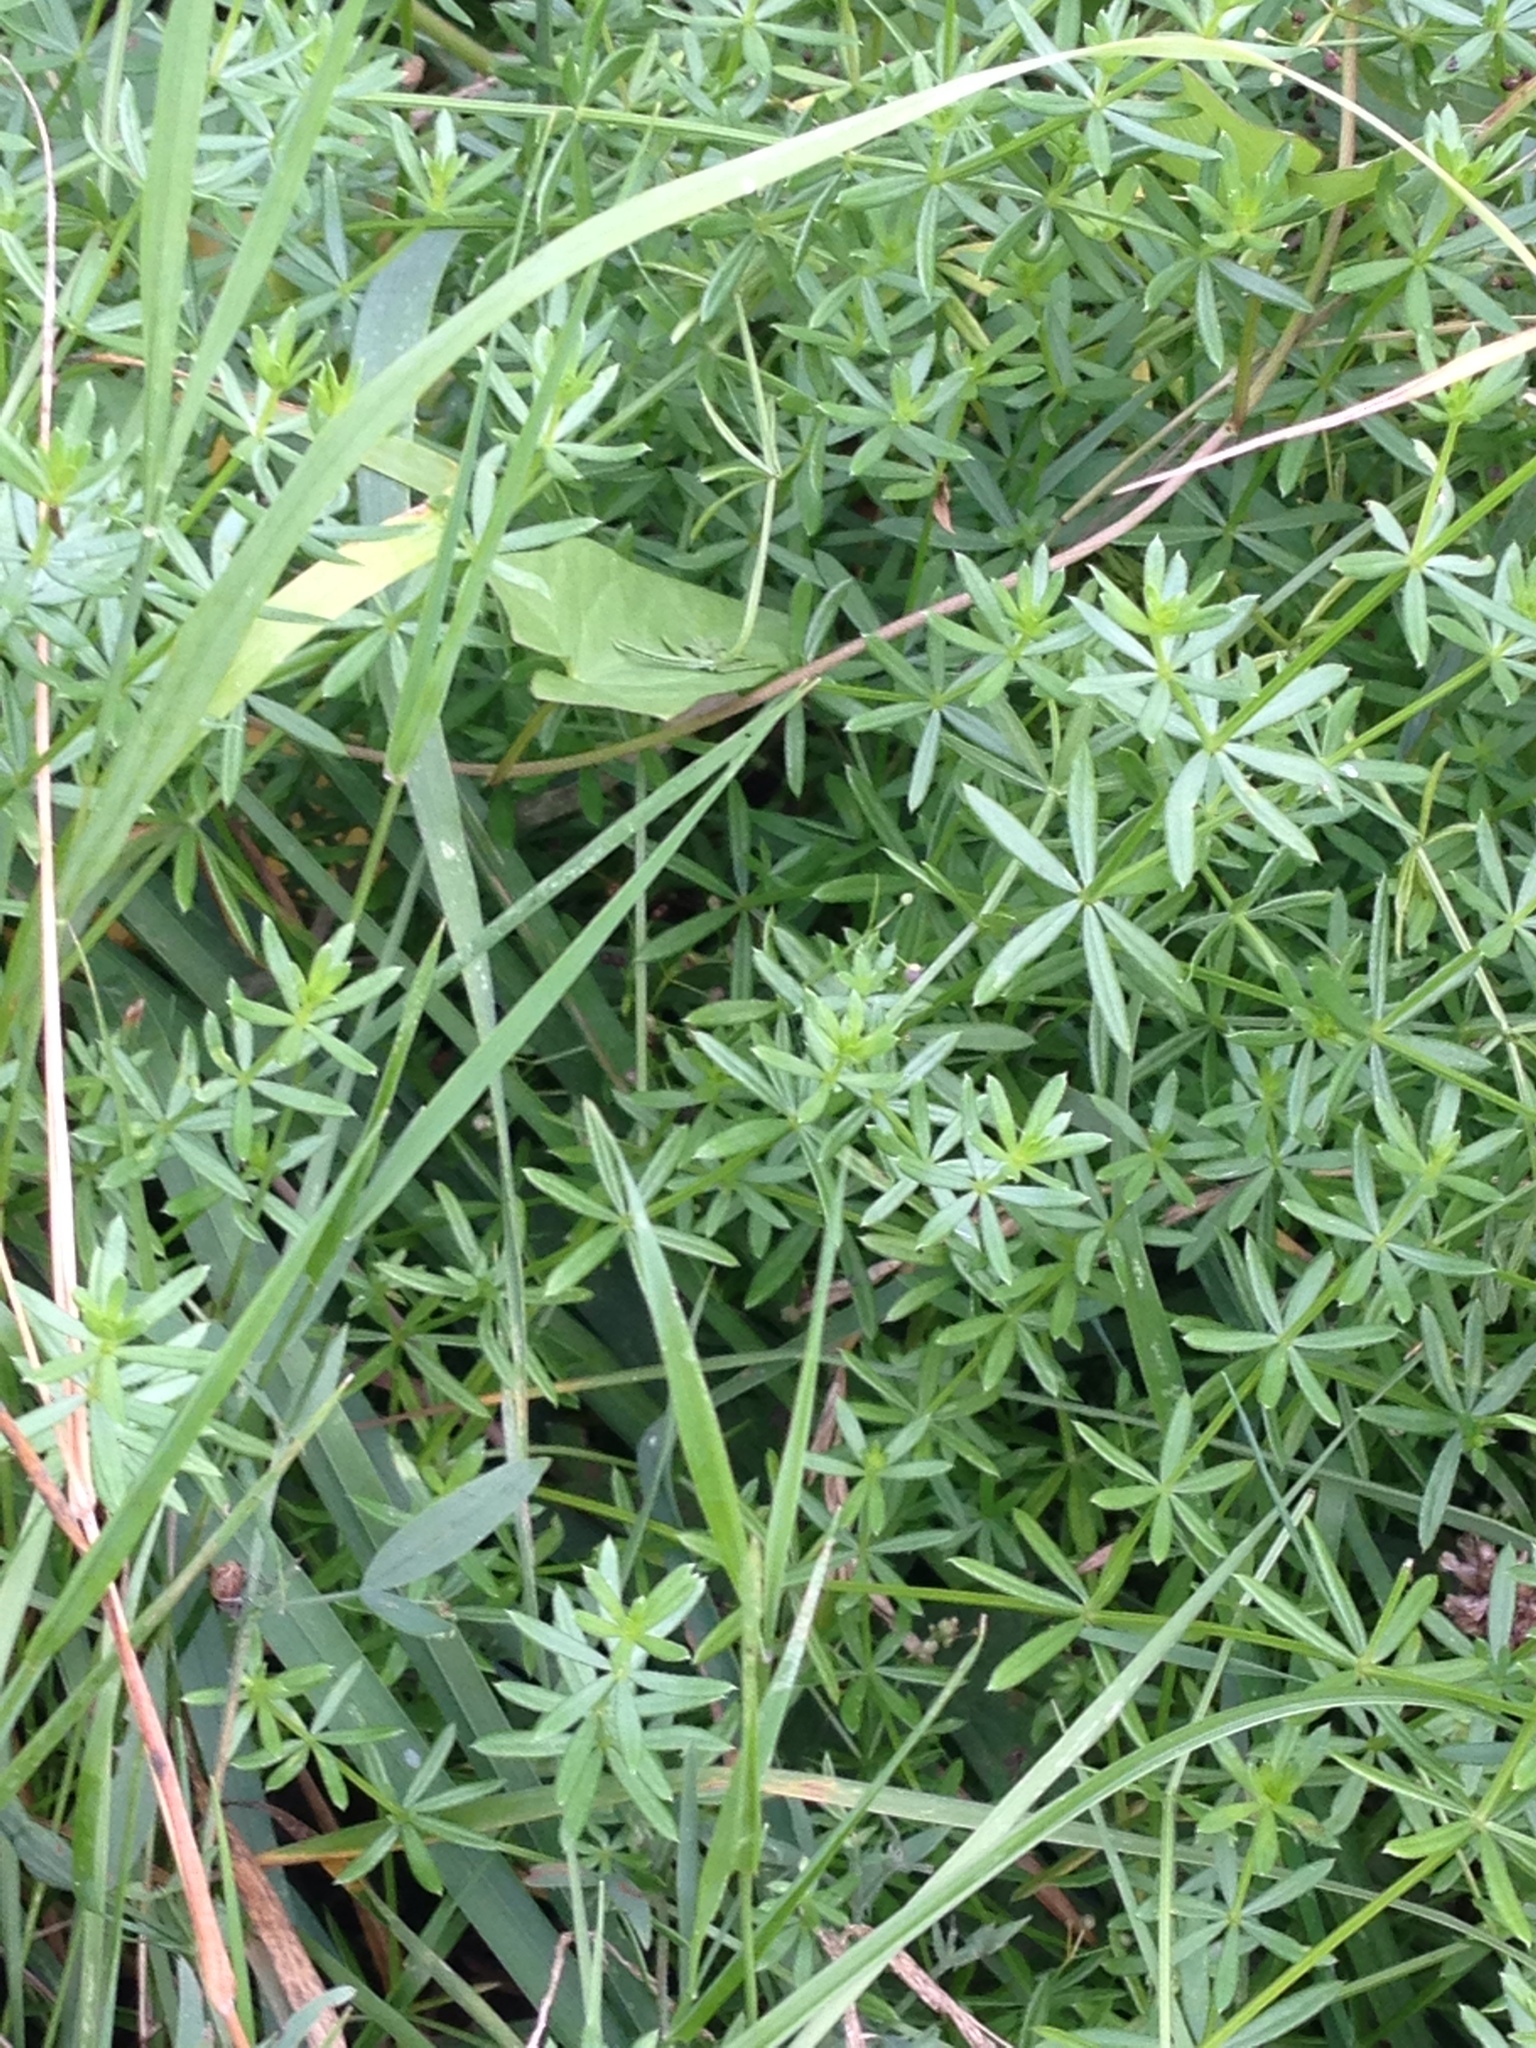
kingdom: Plantae
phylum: Tracheophyta
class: Magnoliopsida
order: Gentianales
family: Rubiaceae
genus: Galium
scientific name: Galium album
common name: White bedstraw
